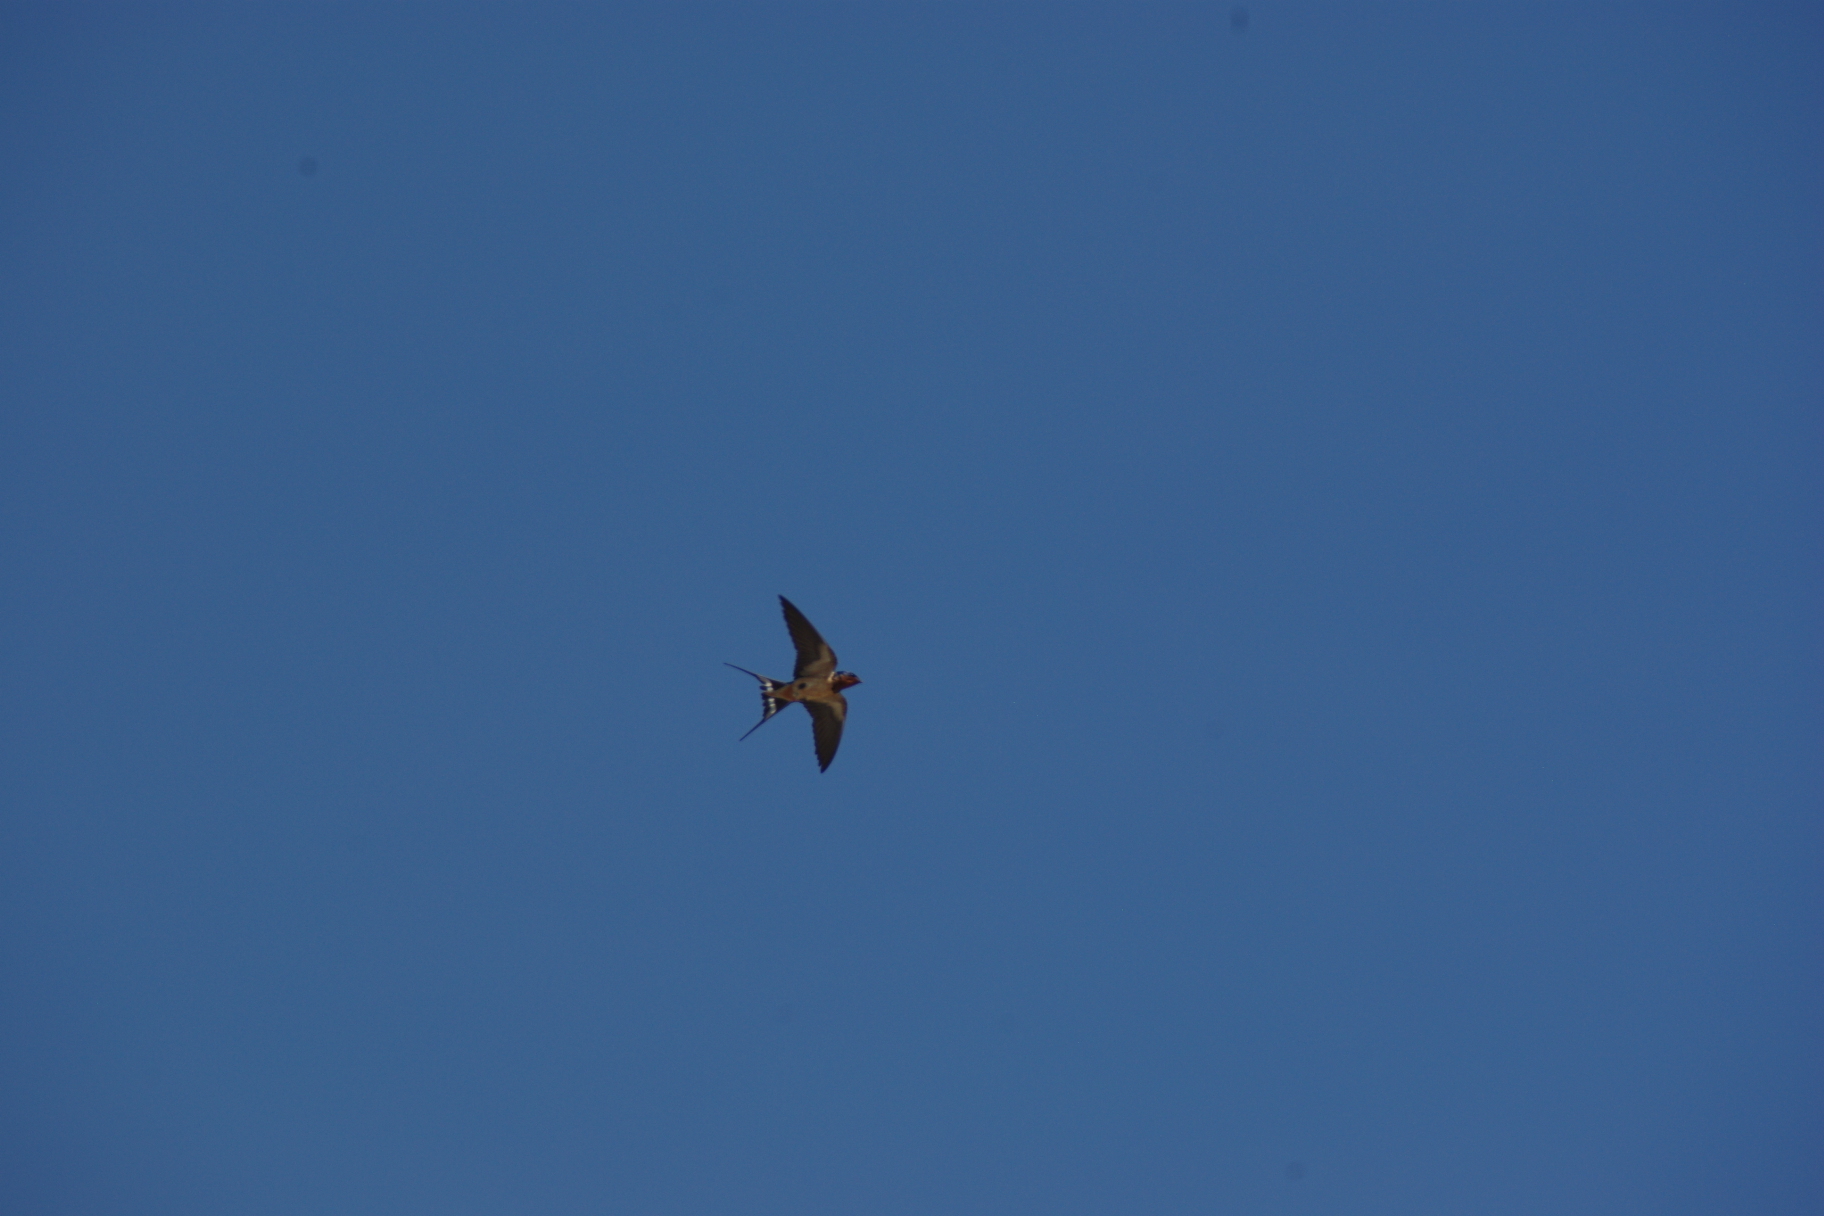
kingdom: Animalia
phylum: Chordata
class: Aves
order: Passeriformes
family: Hirundinidae
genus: Hirundo
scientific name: Hirundo rustica
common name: Barn swallow
